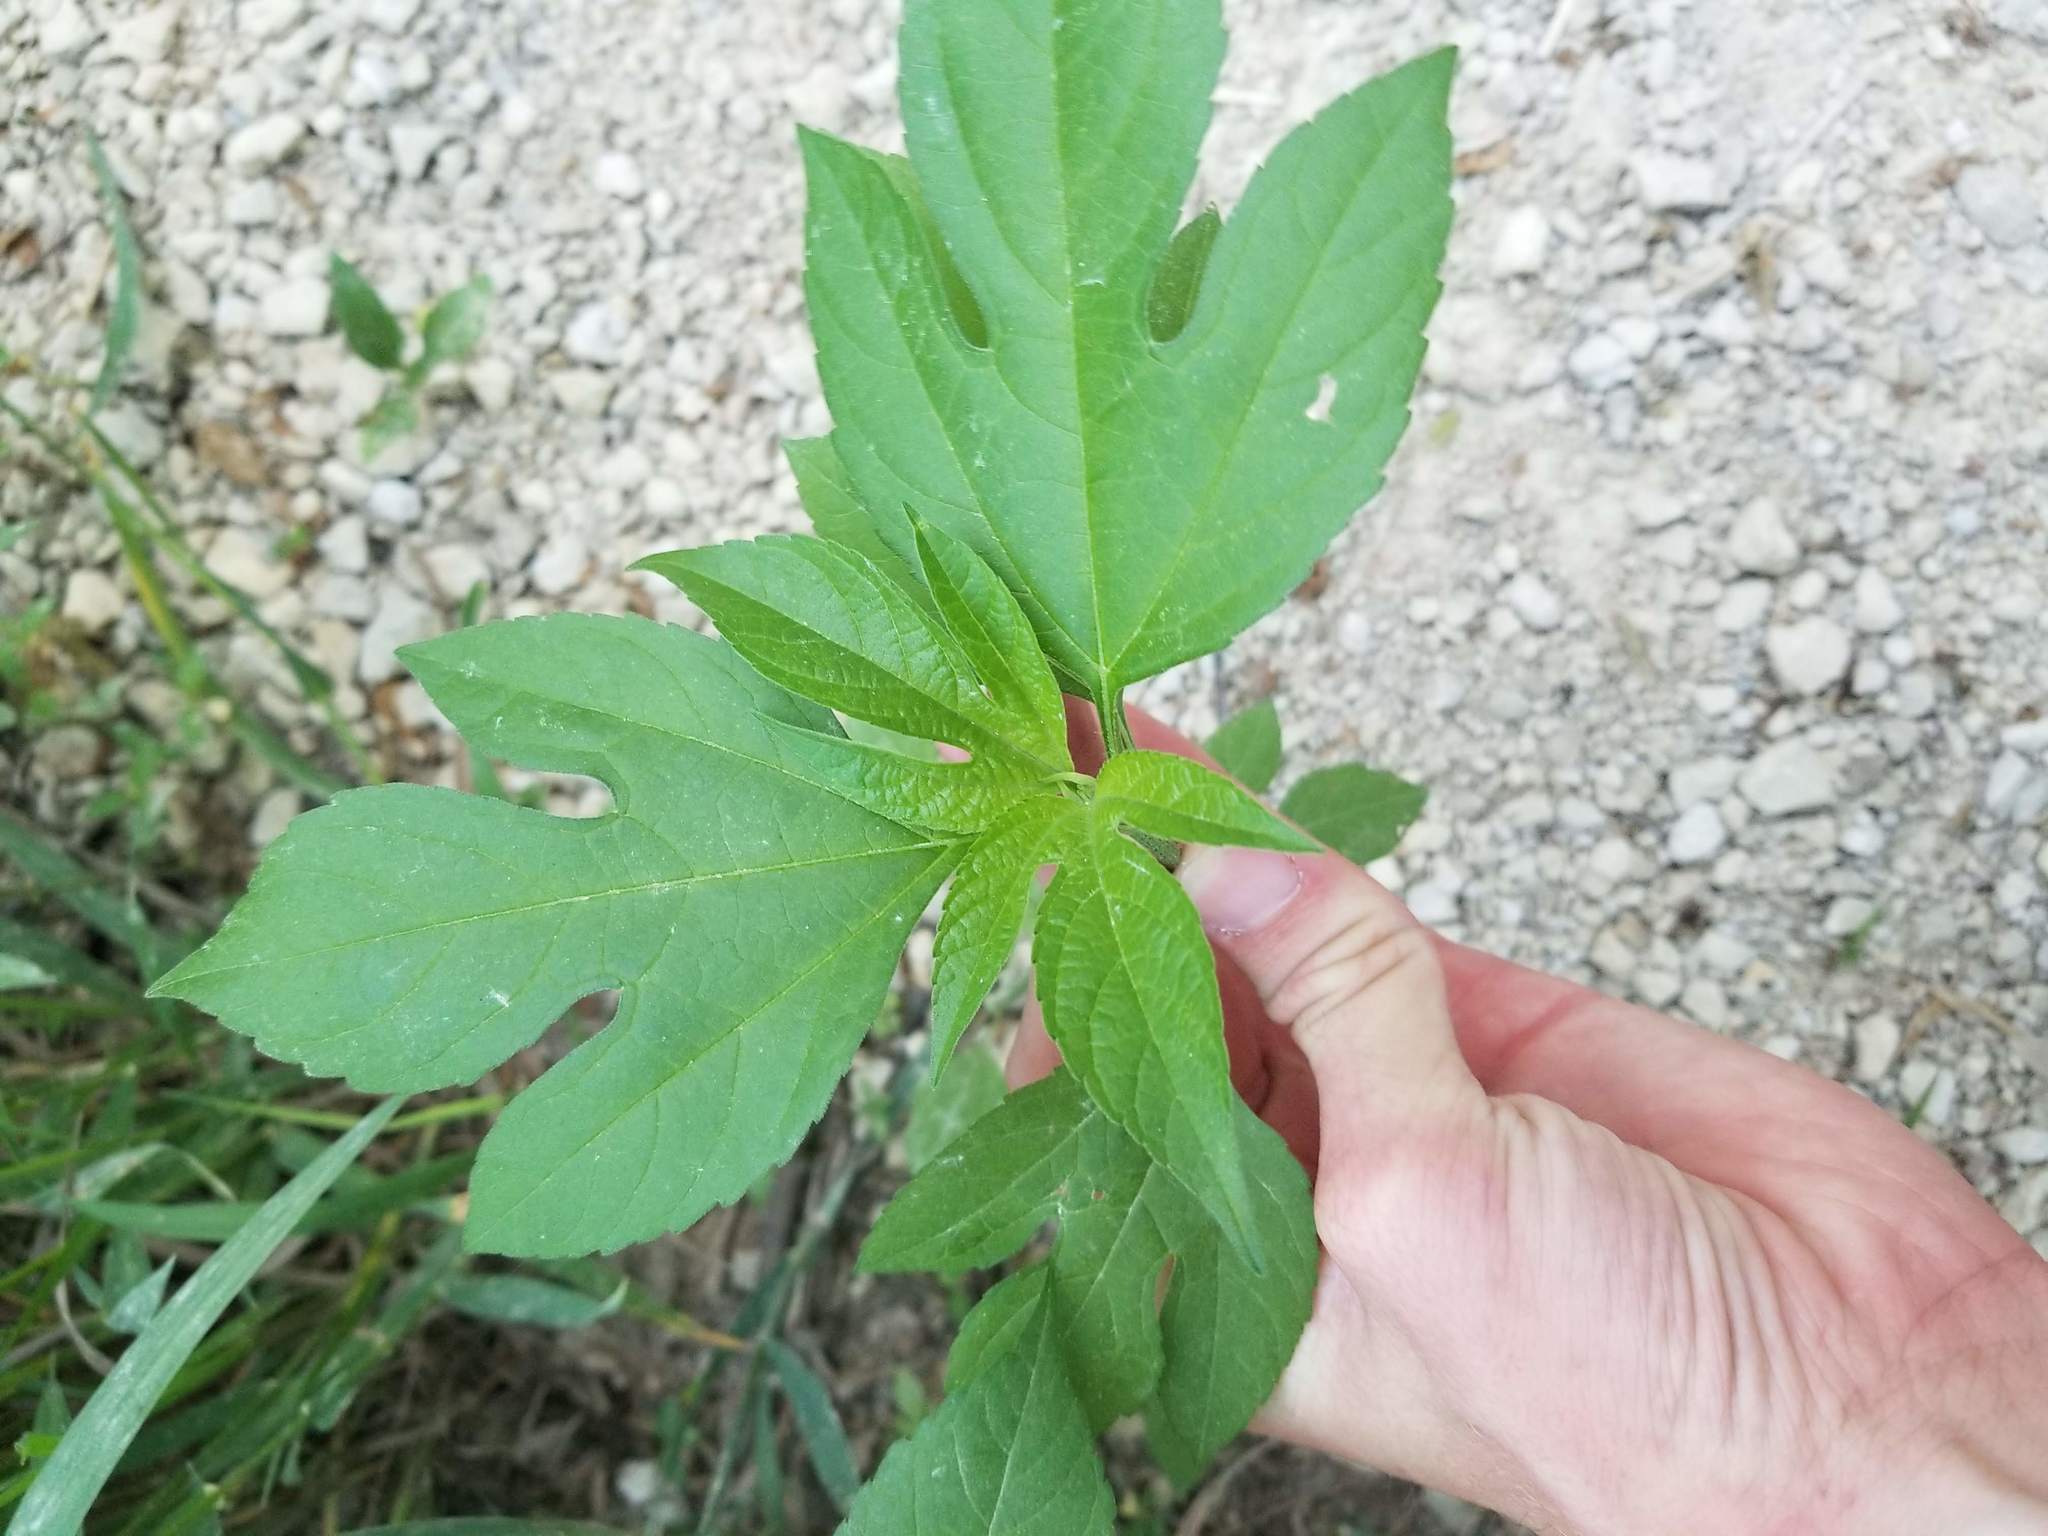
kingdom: Plantae
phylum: Tracheophyta
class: Magnoliopsida
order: Asterales
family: Asteraceae
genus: Ambrosia
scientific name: Ambrosia trifida
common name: Giant ragweed
